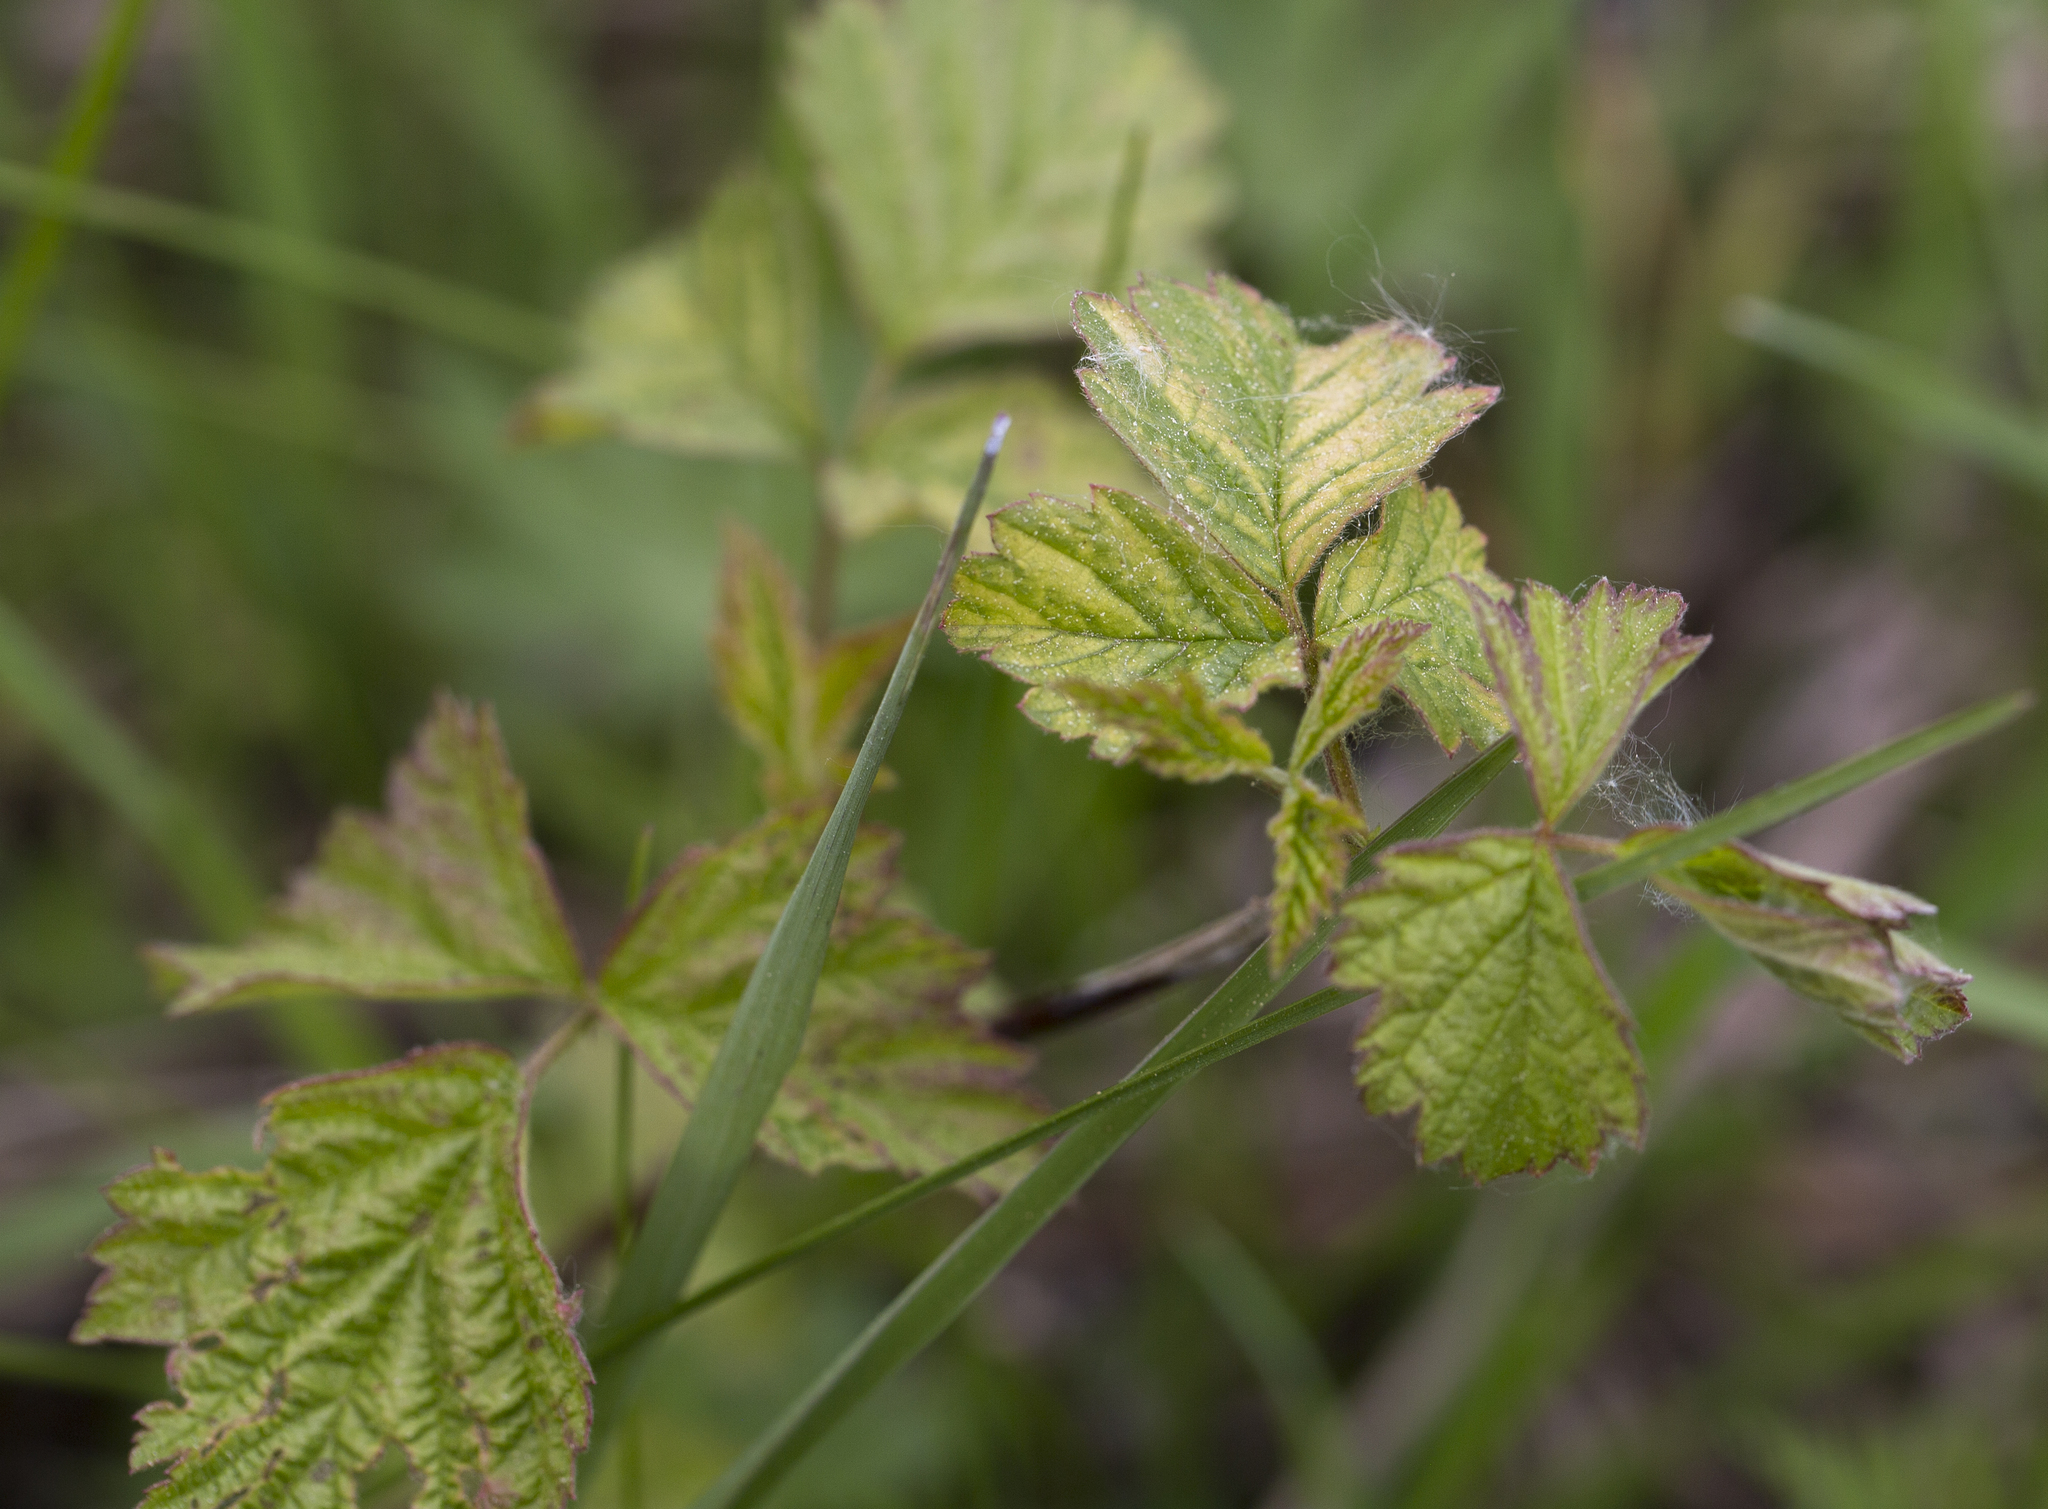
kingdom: Plantae
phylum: Tracheophyta
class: Magnoliopsida
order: Rosales
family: Rosaceae
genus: Rubus
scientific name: Rubus caesius
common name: Dewberry
